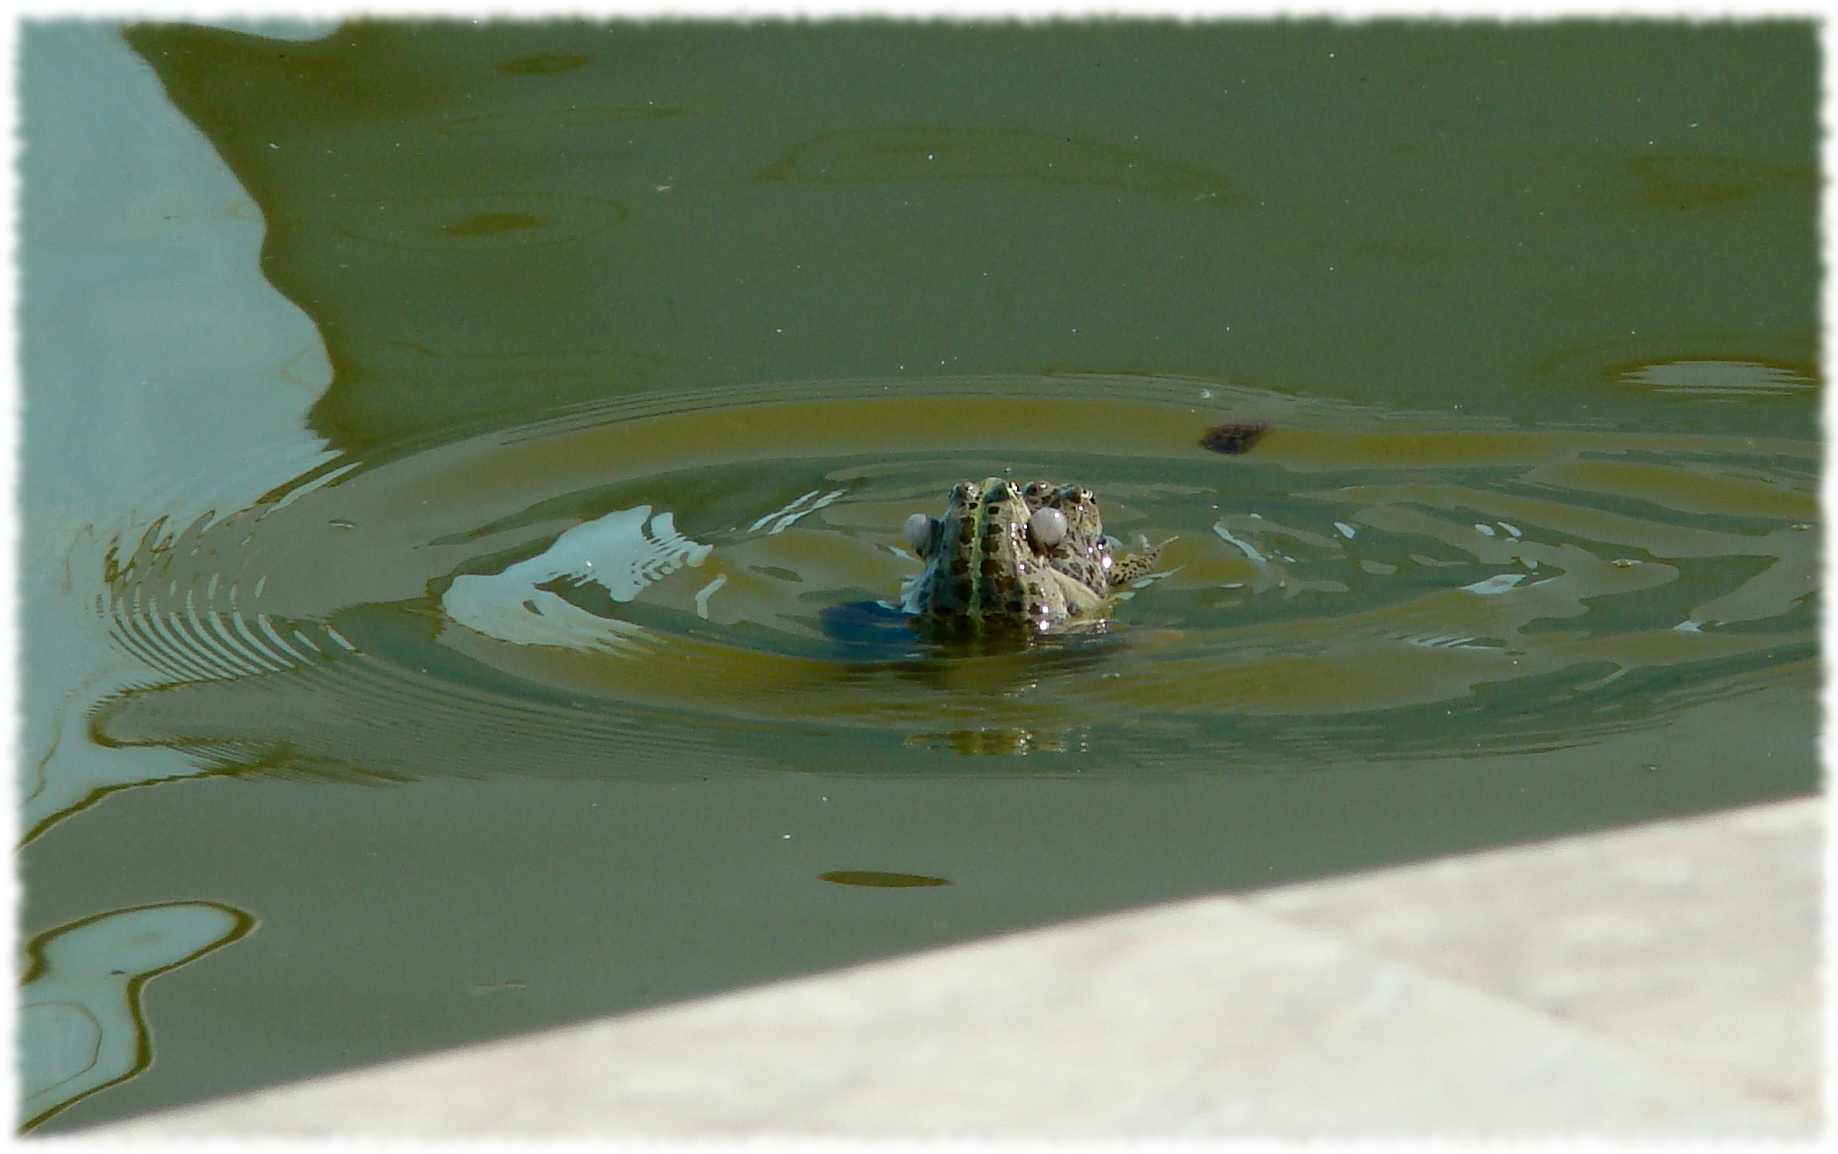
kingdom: Animalia
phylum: Chordata
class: Amphibia
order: Anura
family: Ranidae
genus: Pelophylax
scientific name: Pelophylax ridibundus
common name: Marsh frog
